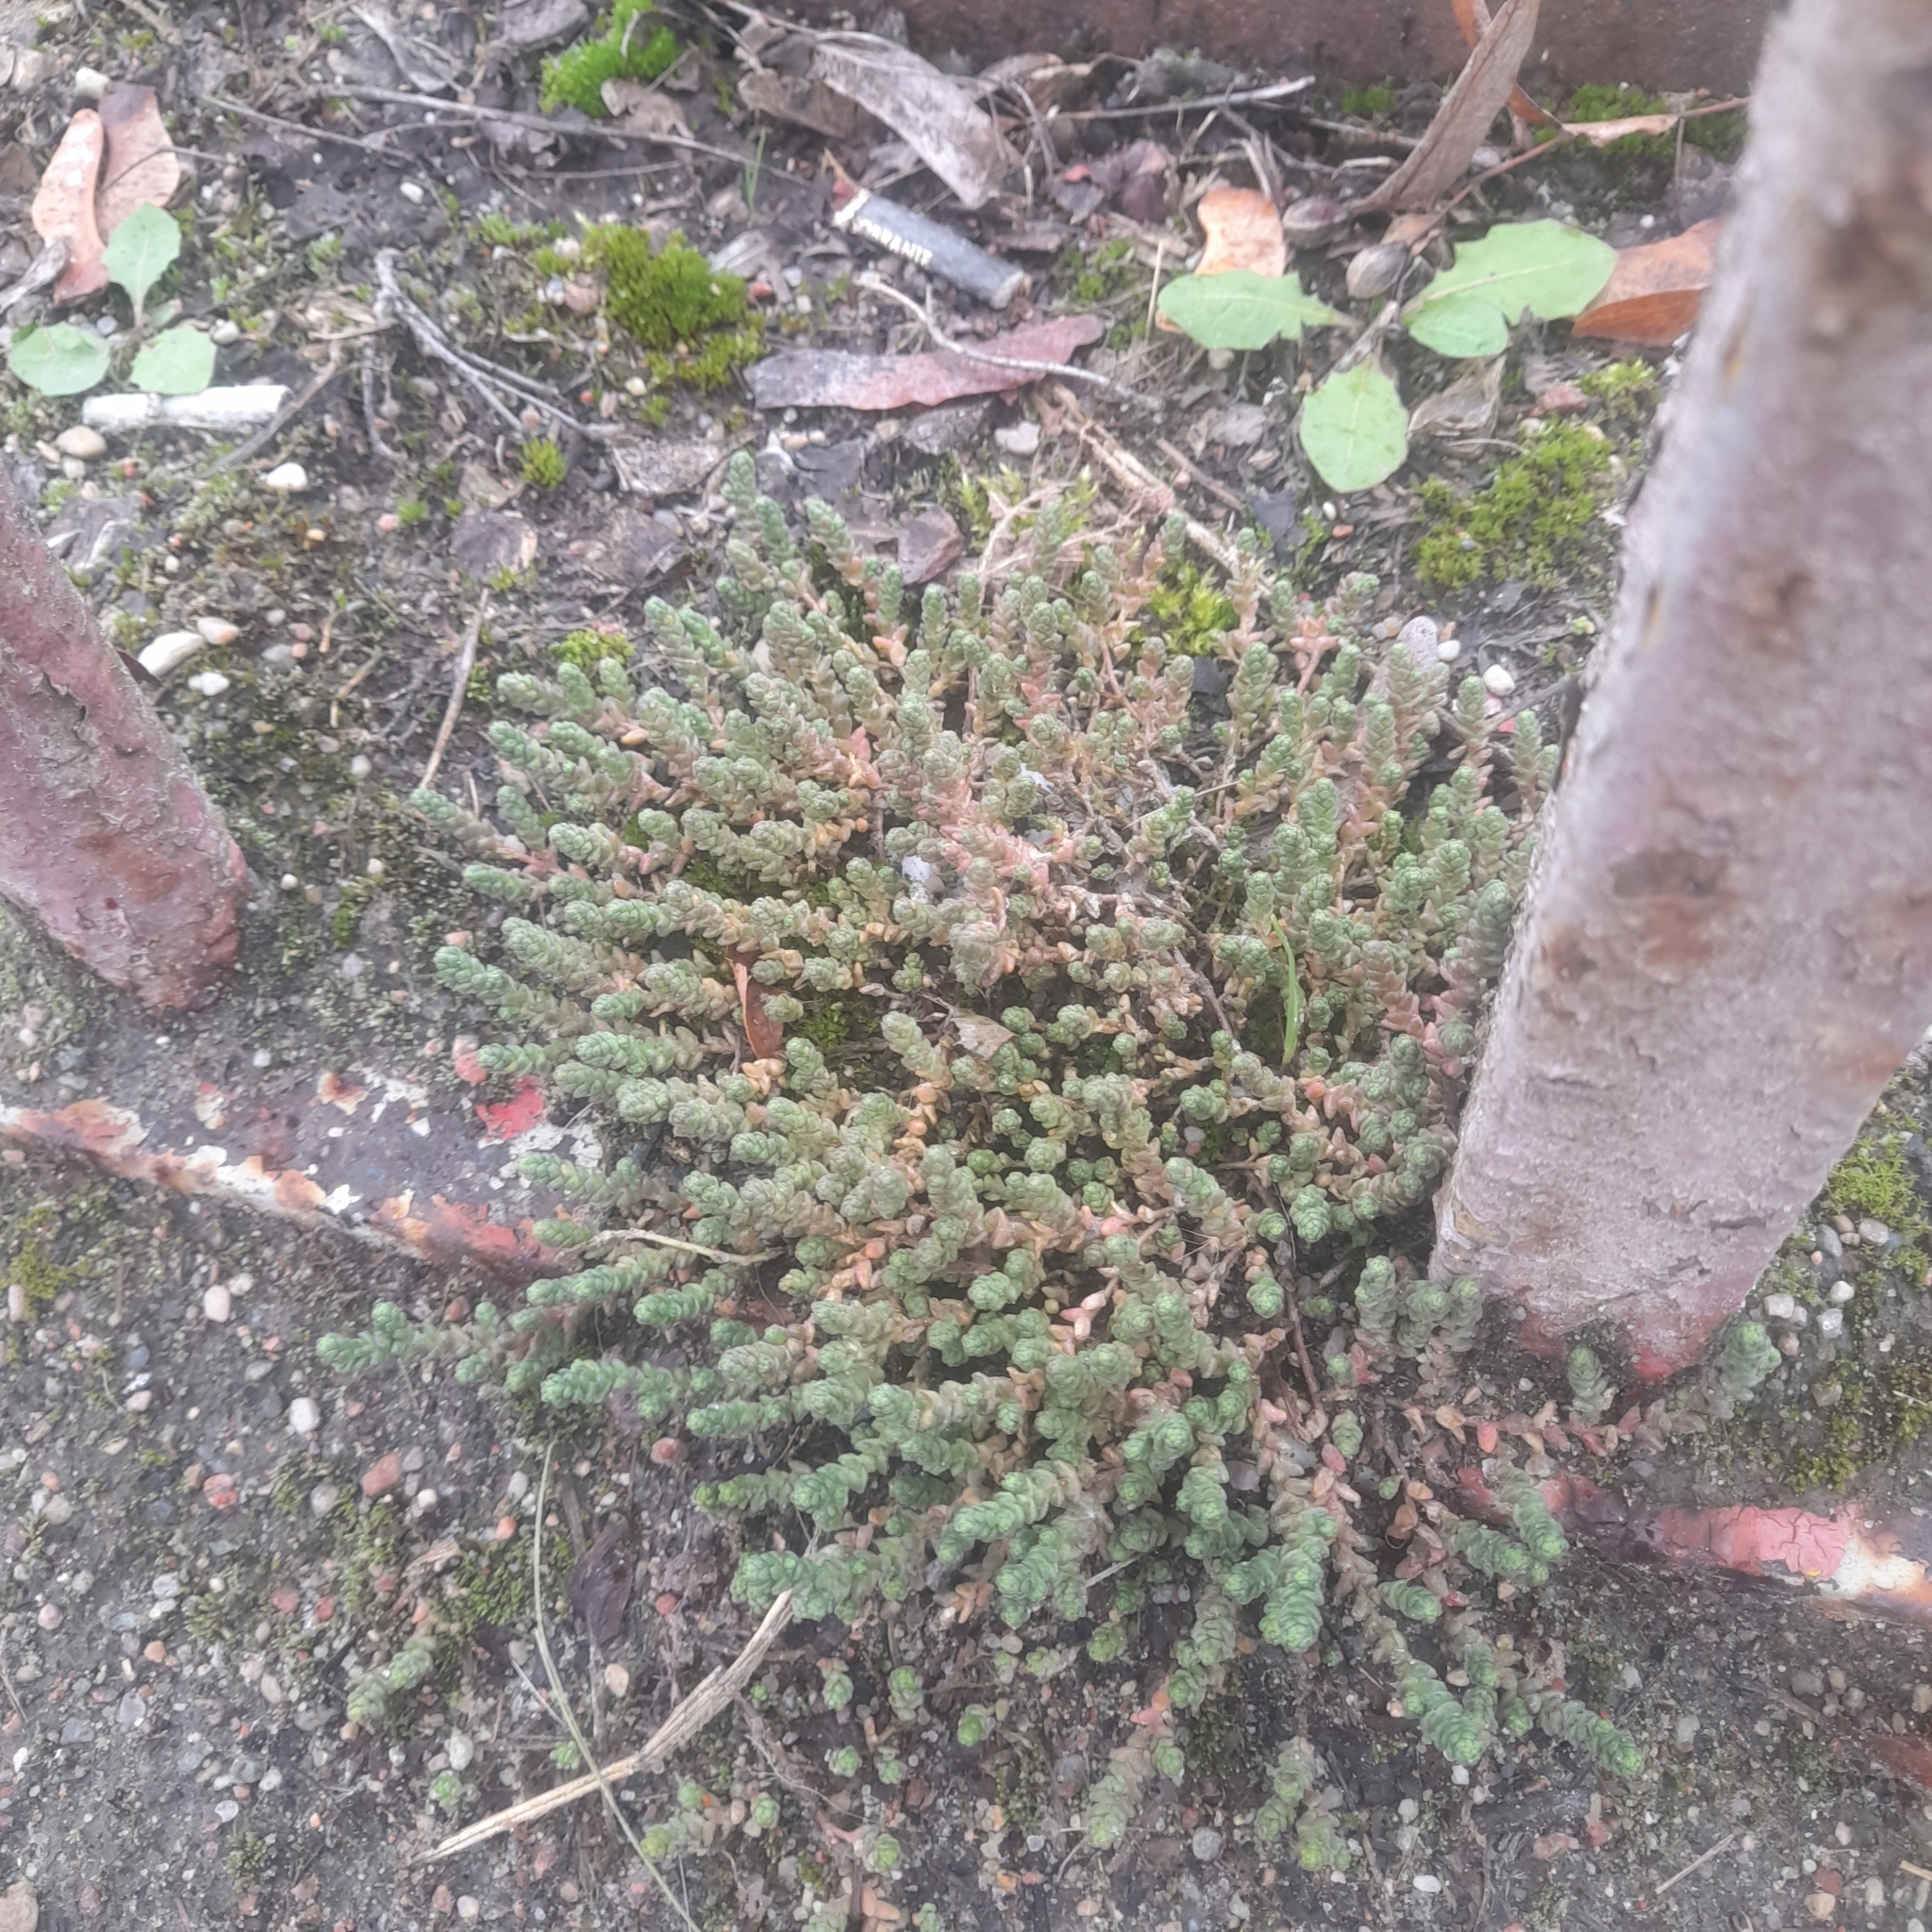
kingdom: Plantae
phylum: Tracheophyta
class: Magnoliopsida
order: Saxifragales
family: Crassulaceae
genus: Sedum
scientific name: Sedum acre
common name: Biting stonecrop
